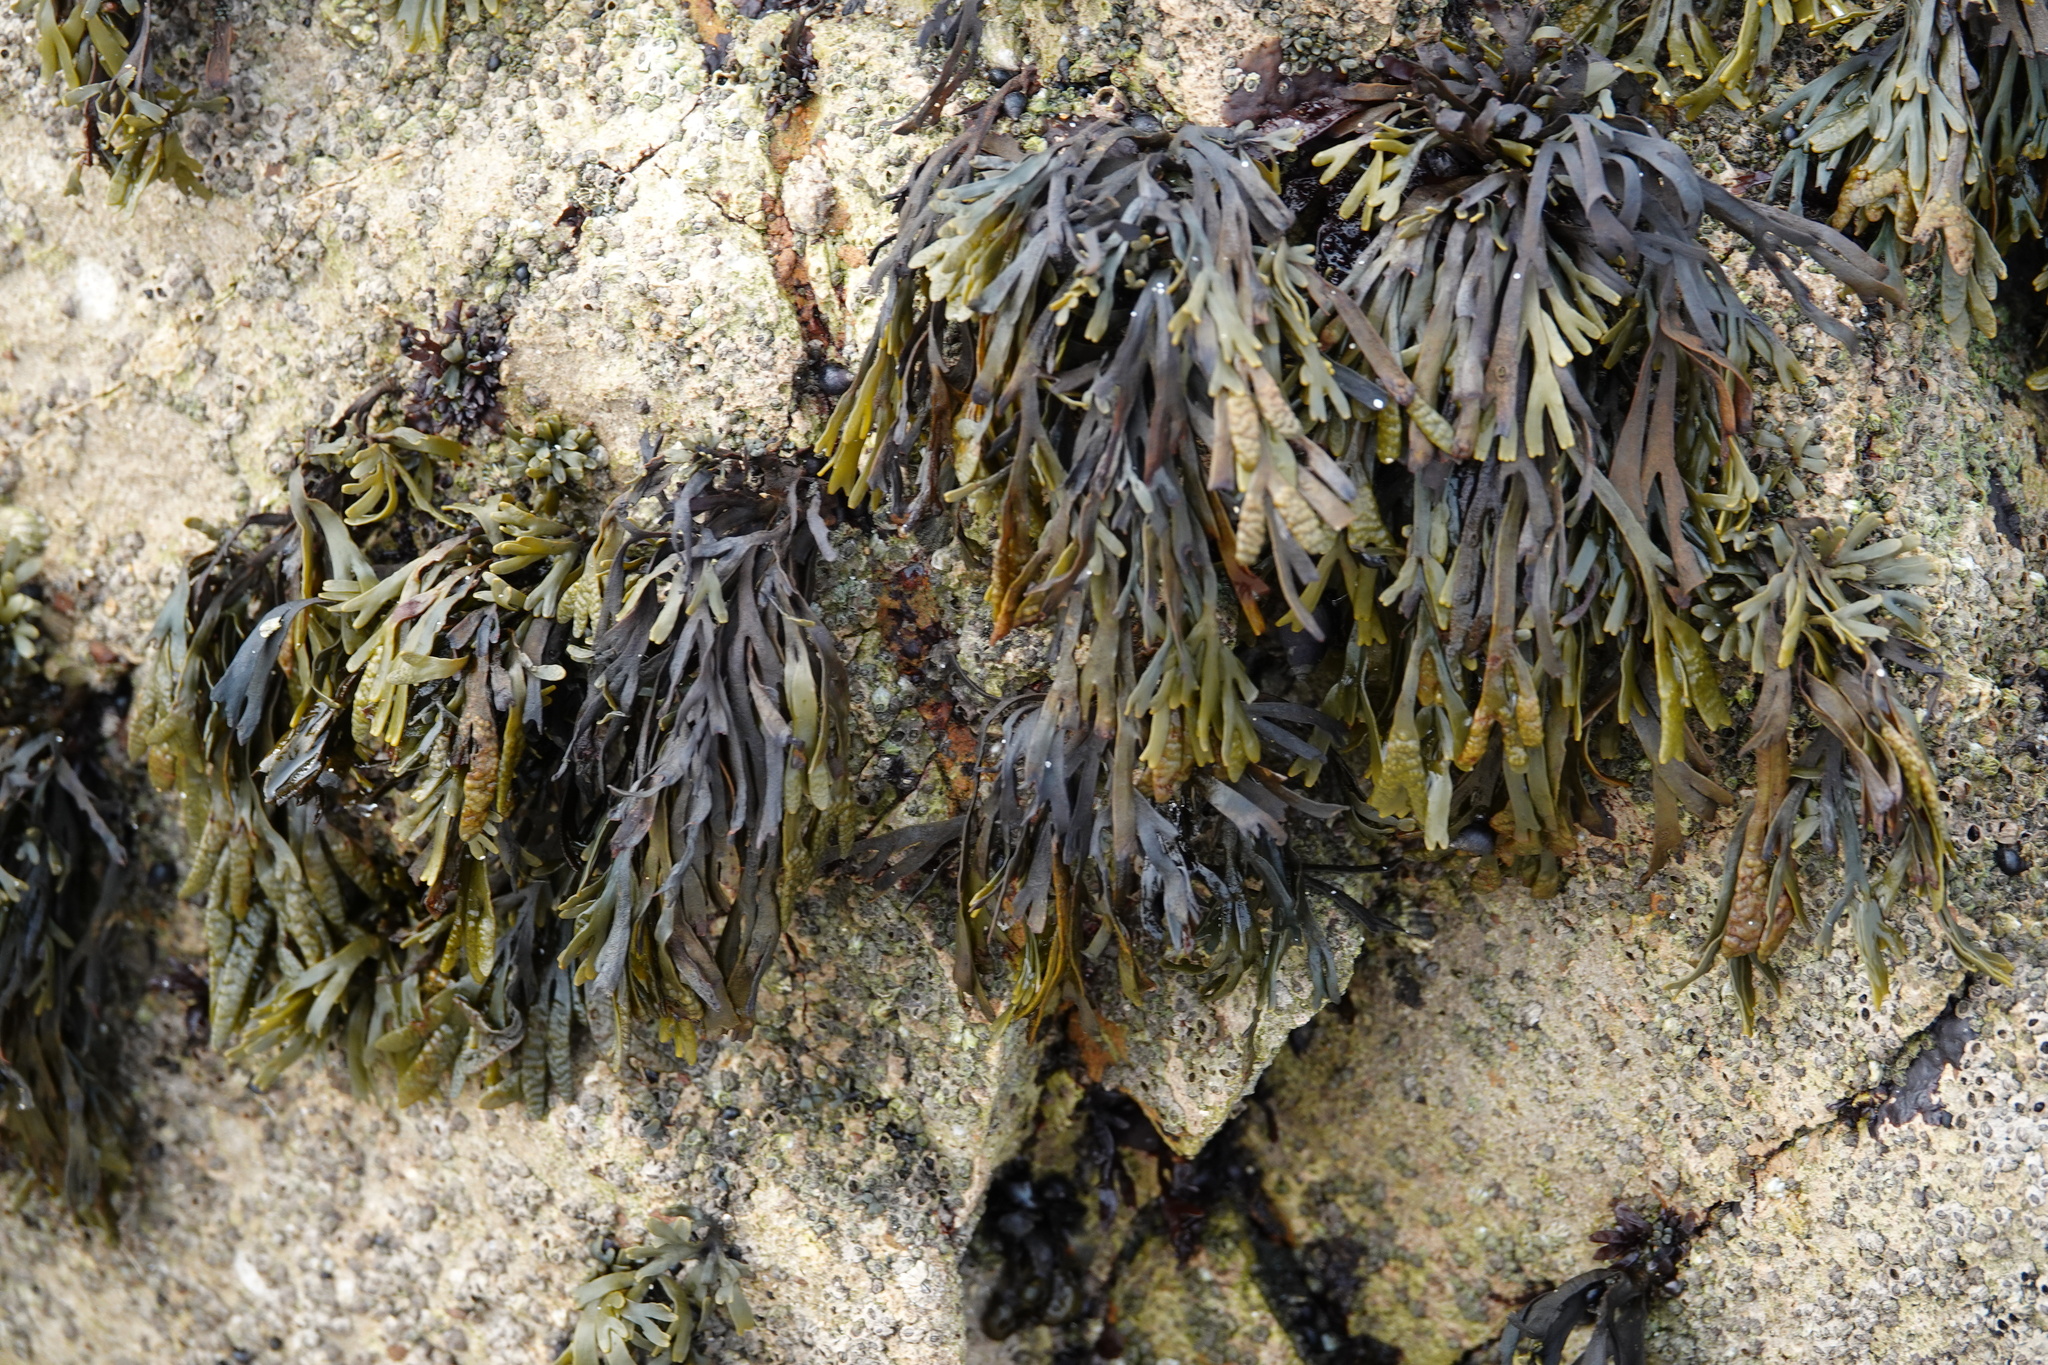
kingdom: Chromista
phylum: Ochrophyta
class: Phaeophyceae
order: Fucales
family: Fucaceae
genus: Pelvetiopsis
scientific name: Pelvetiopsis limitata
